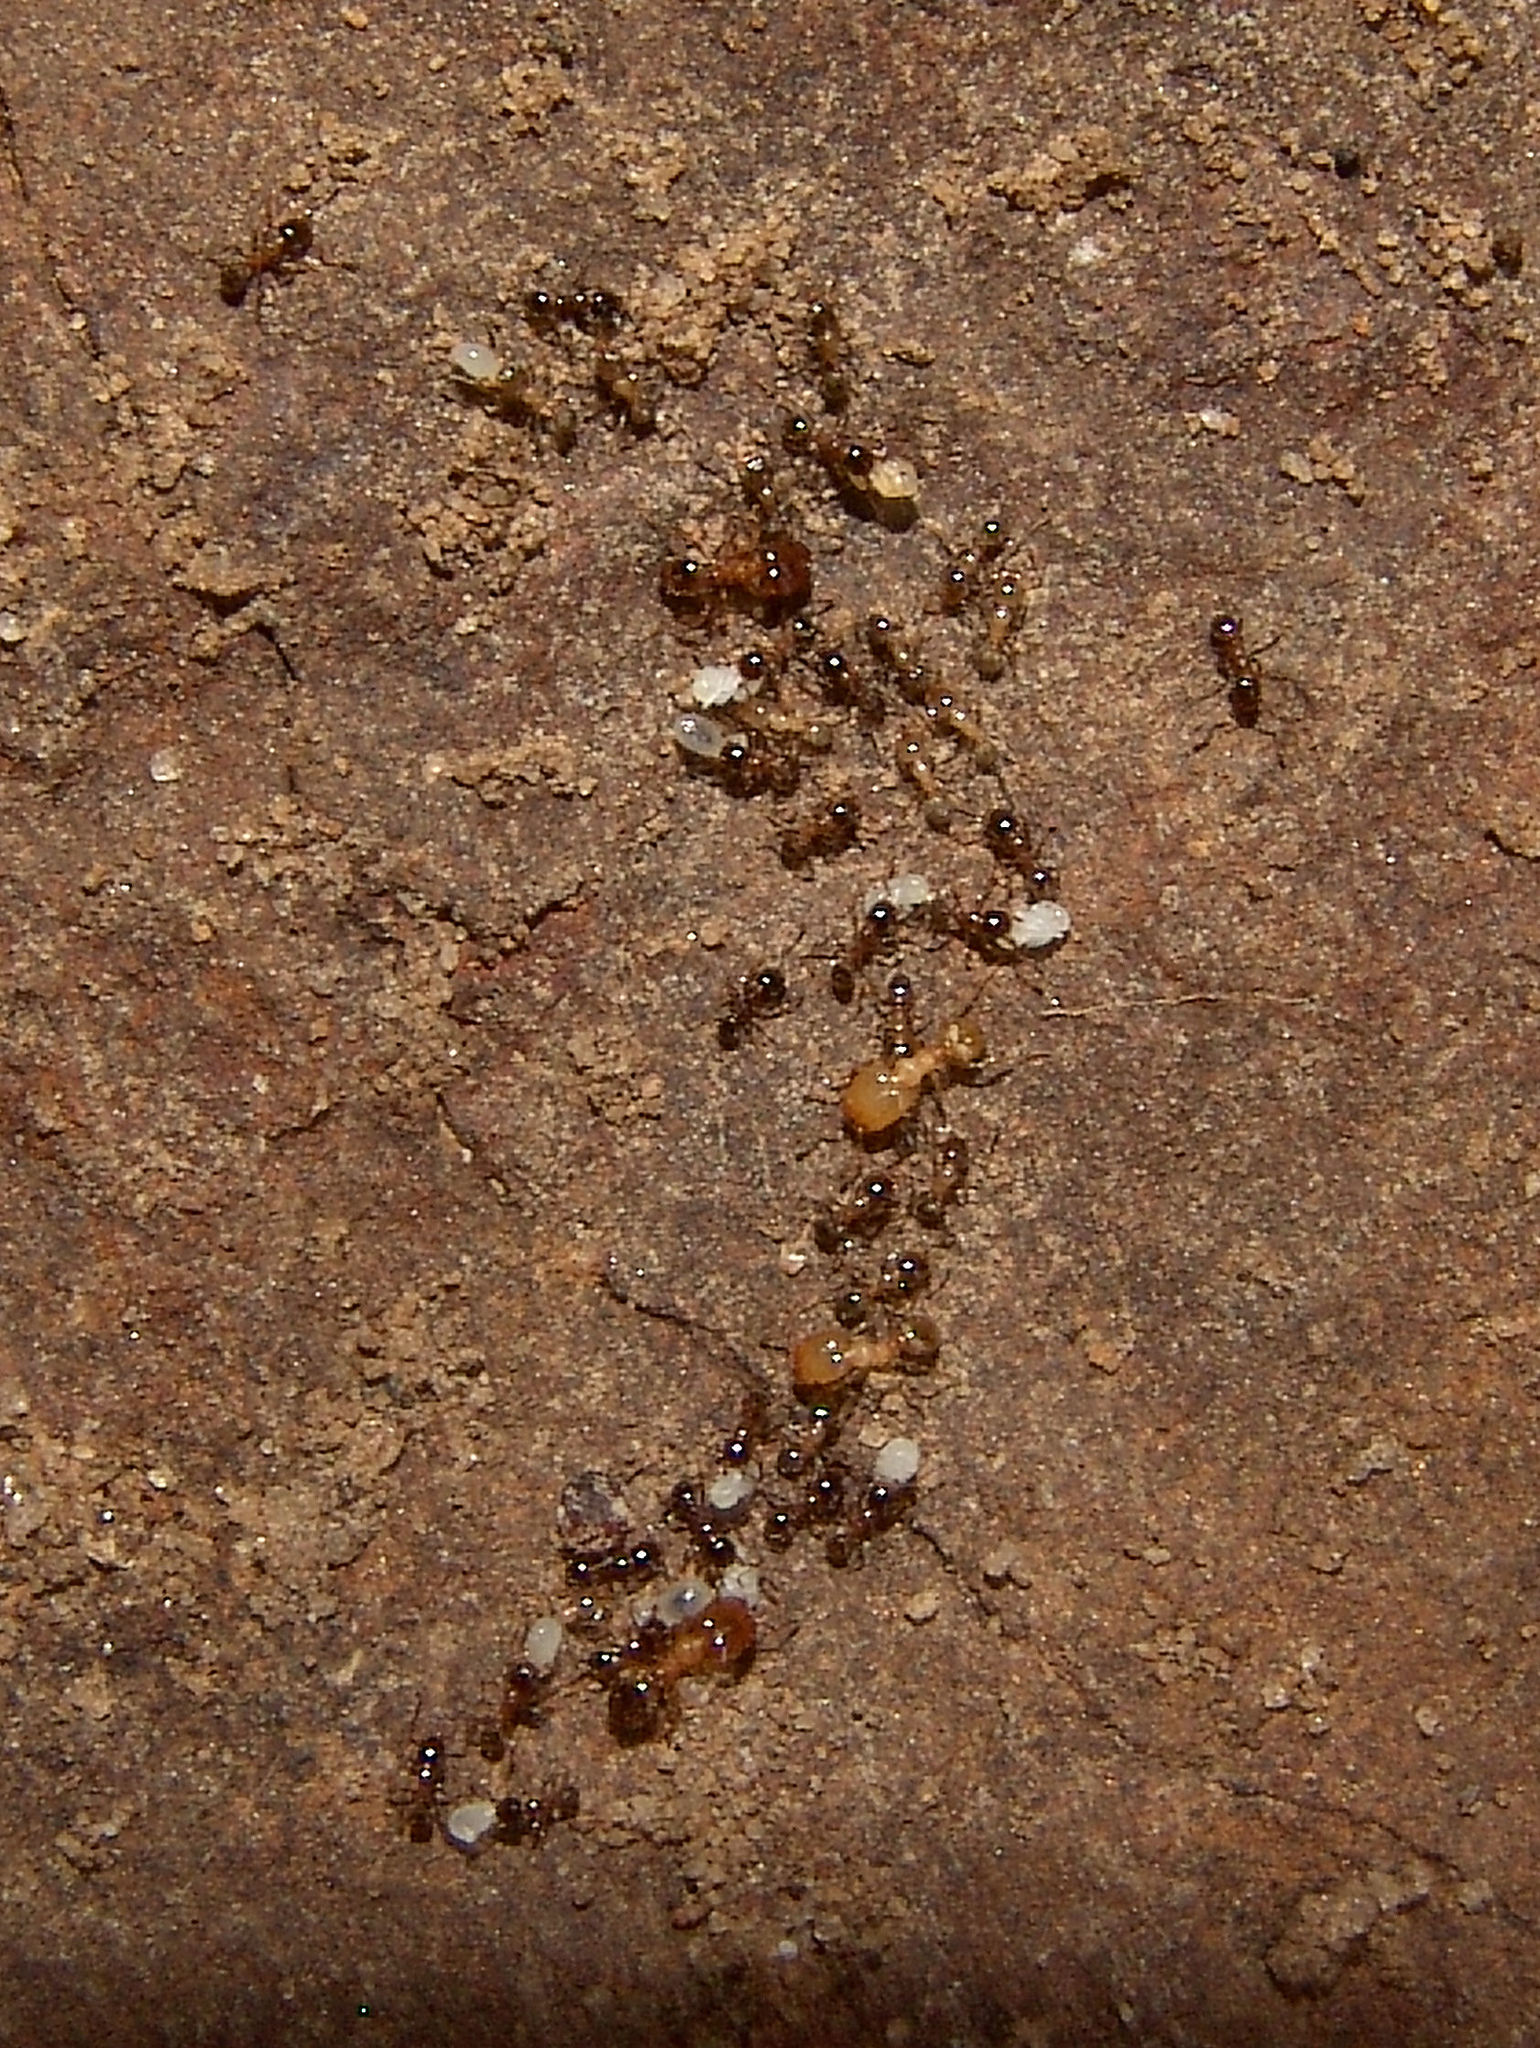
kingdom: Animalia
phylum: Arthropoda
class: Insecta
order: Hymenoptera
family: Formicidae
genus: Pheidole
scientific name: Pheidole bicarinata
